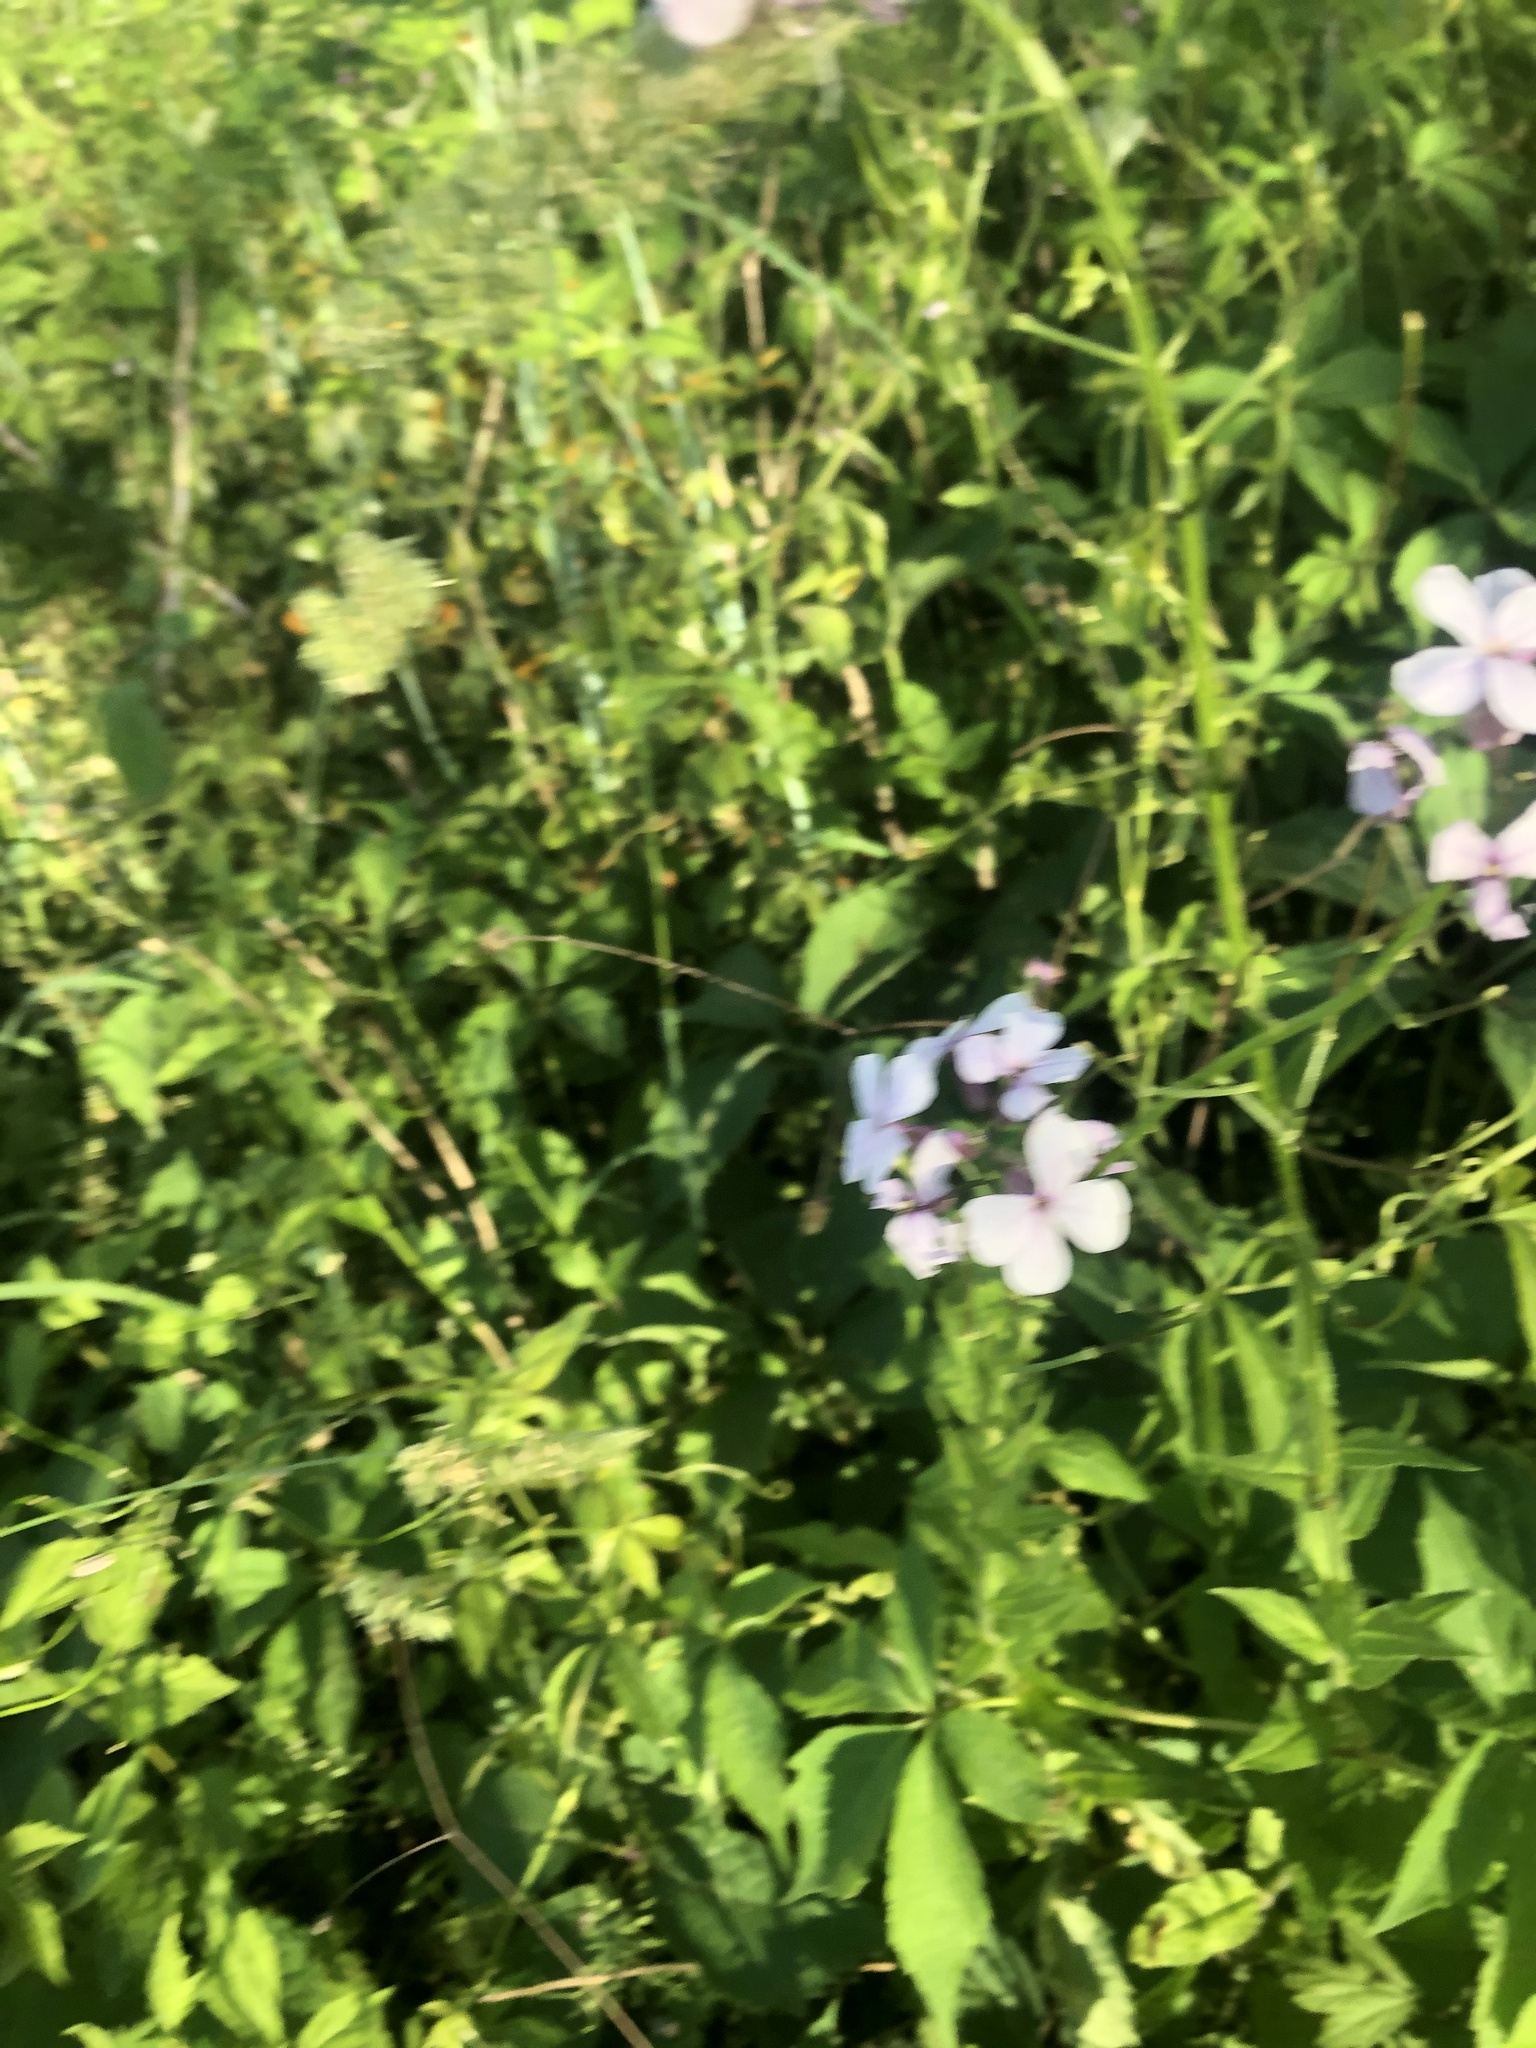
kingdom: Plantae
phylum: Tracheophyta
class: Magnoliopsida
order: Brassicales
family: Brassicaceae
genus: Hesperis
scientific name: Hesperis matronalis
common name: Dame's-violet
